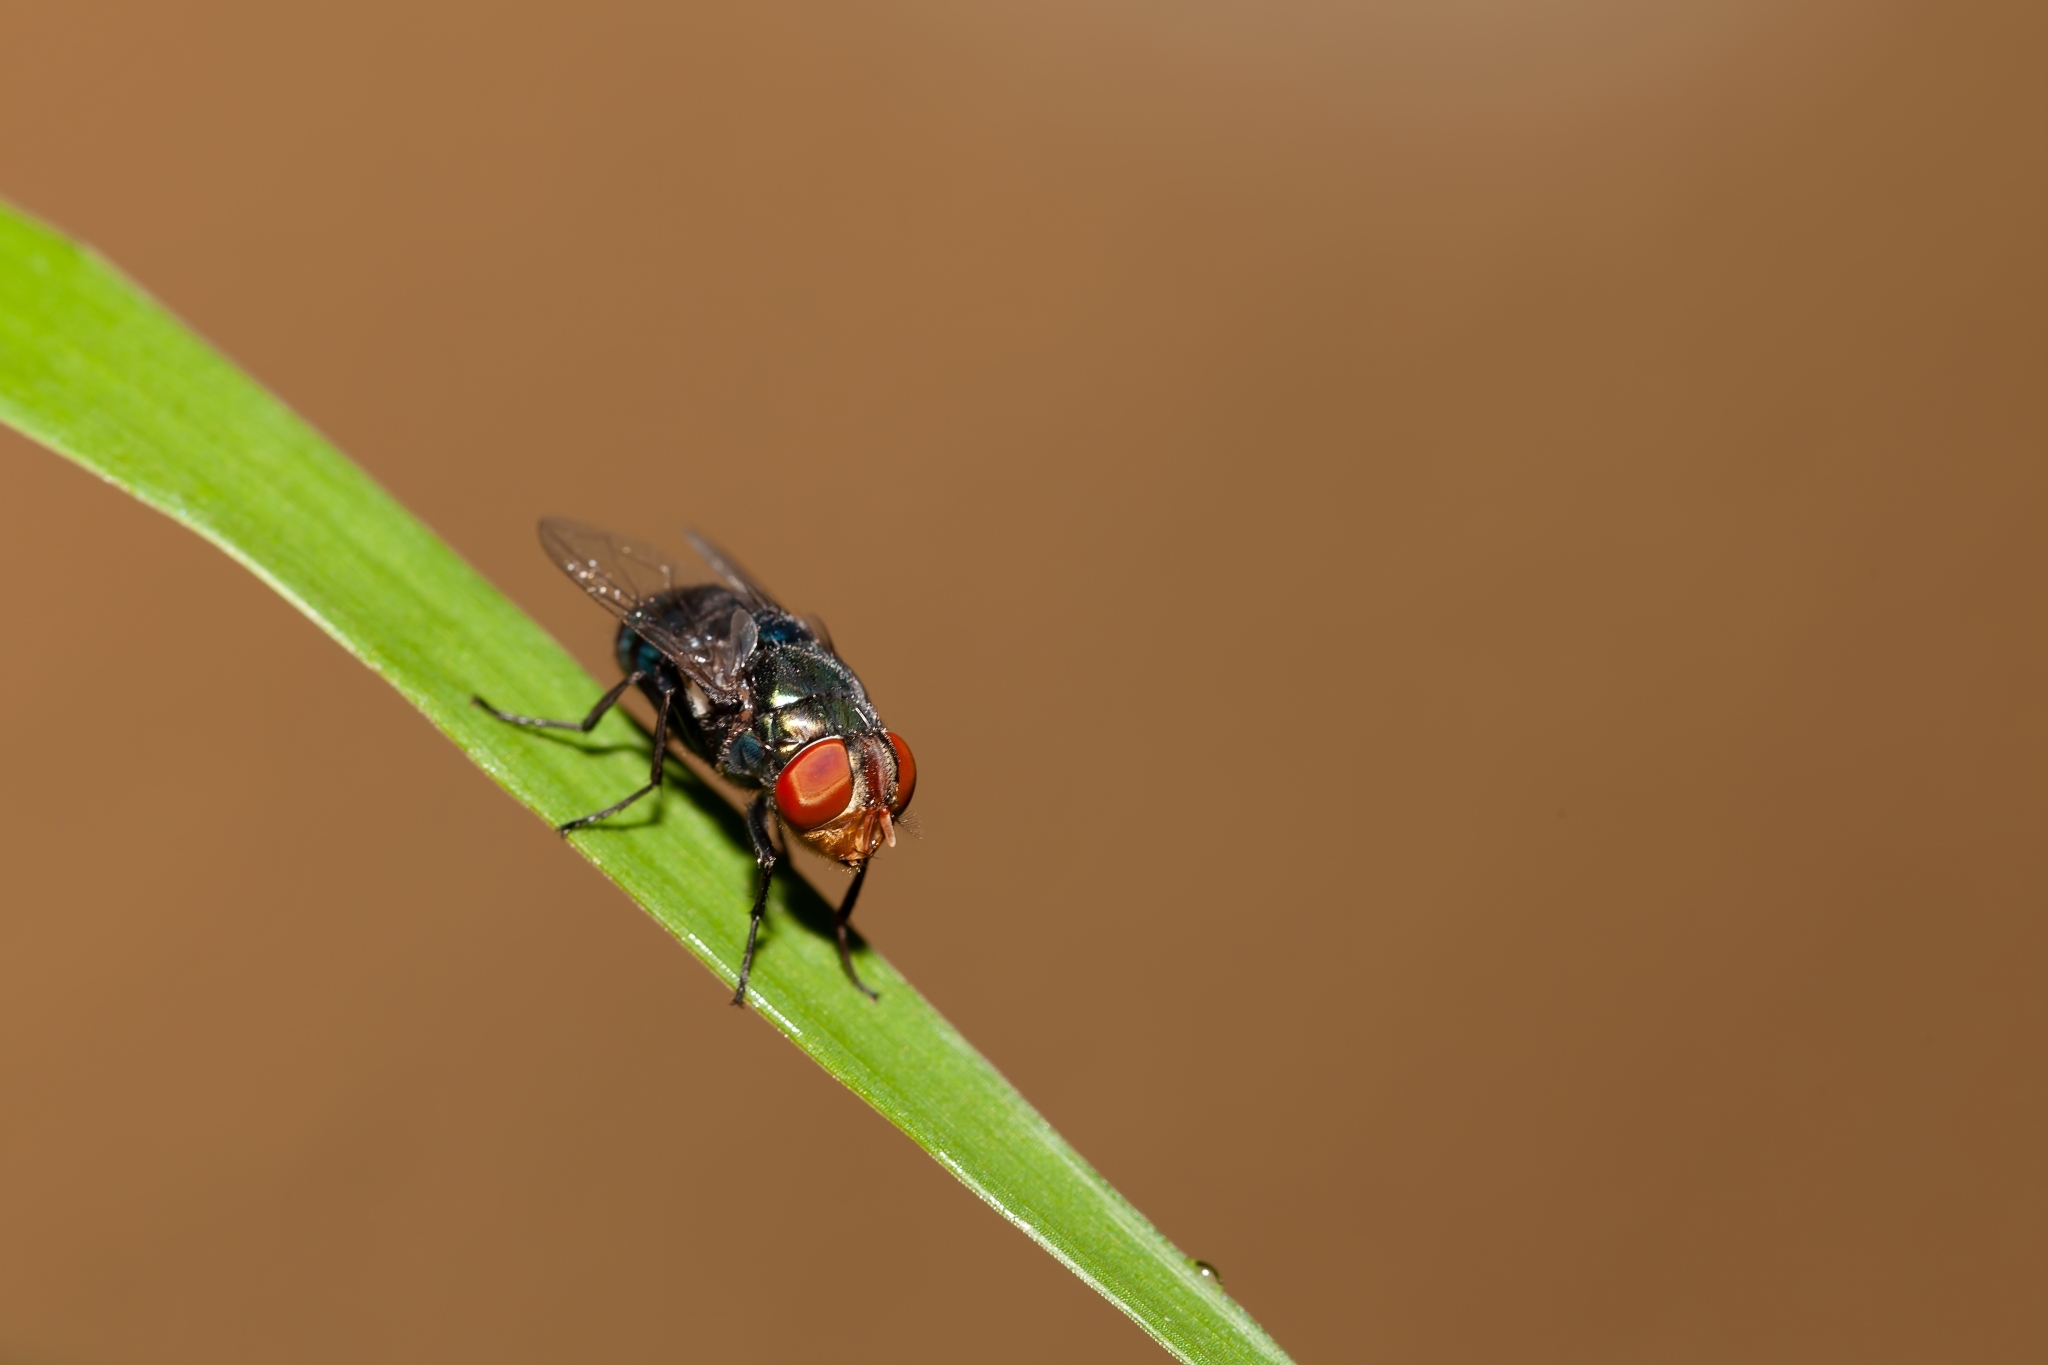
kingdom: Animalia
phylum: Arthropoda
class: Insecta
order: Diptera
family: Calliphoridae
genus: Chrysomya
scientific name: Chrysomya megacephala
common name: Blow fly
